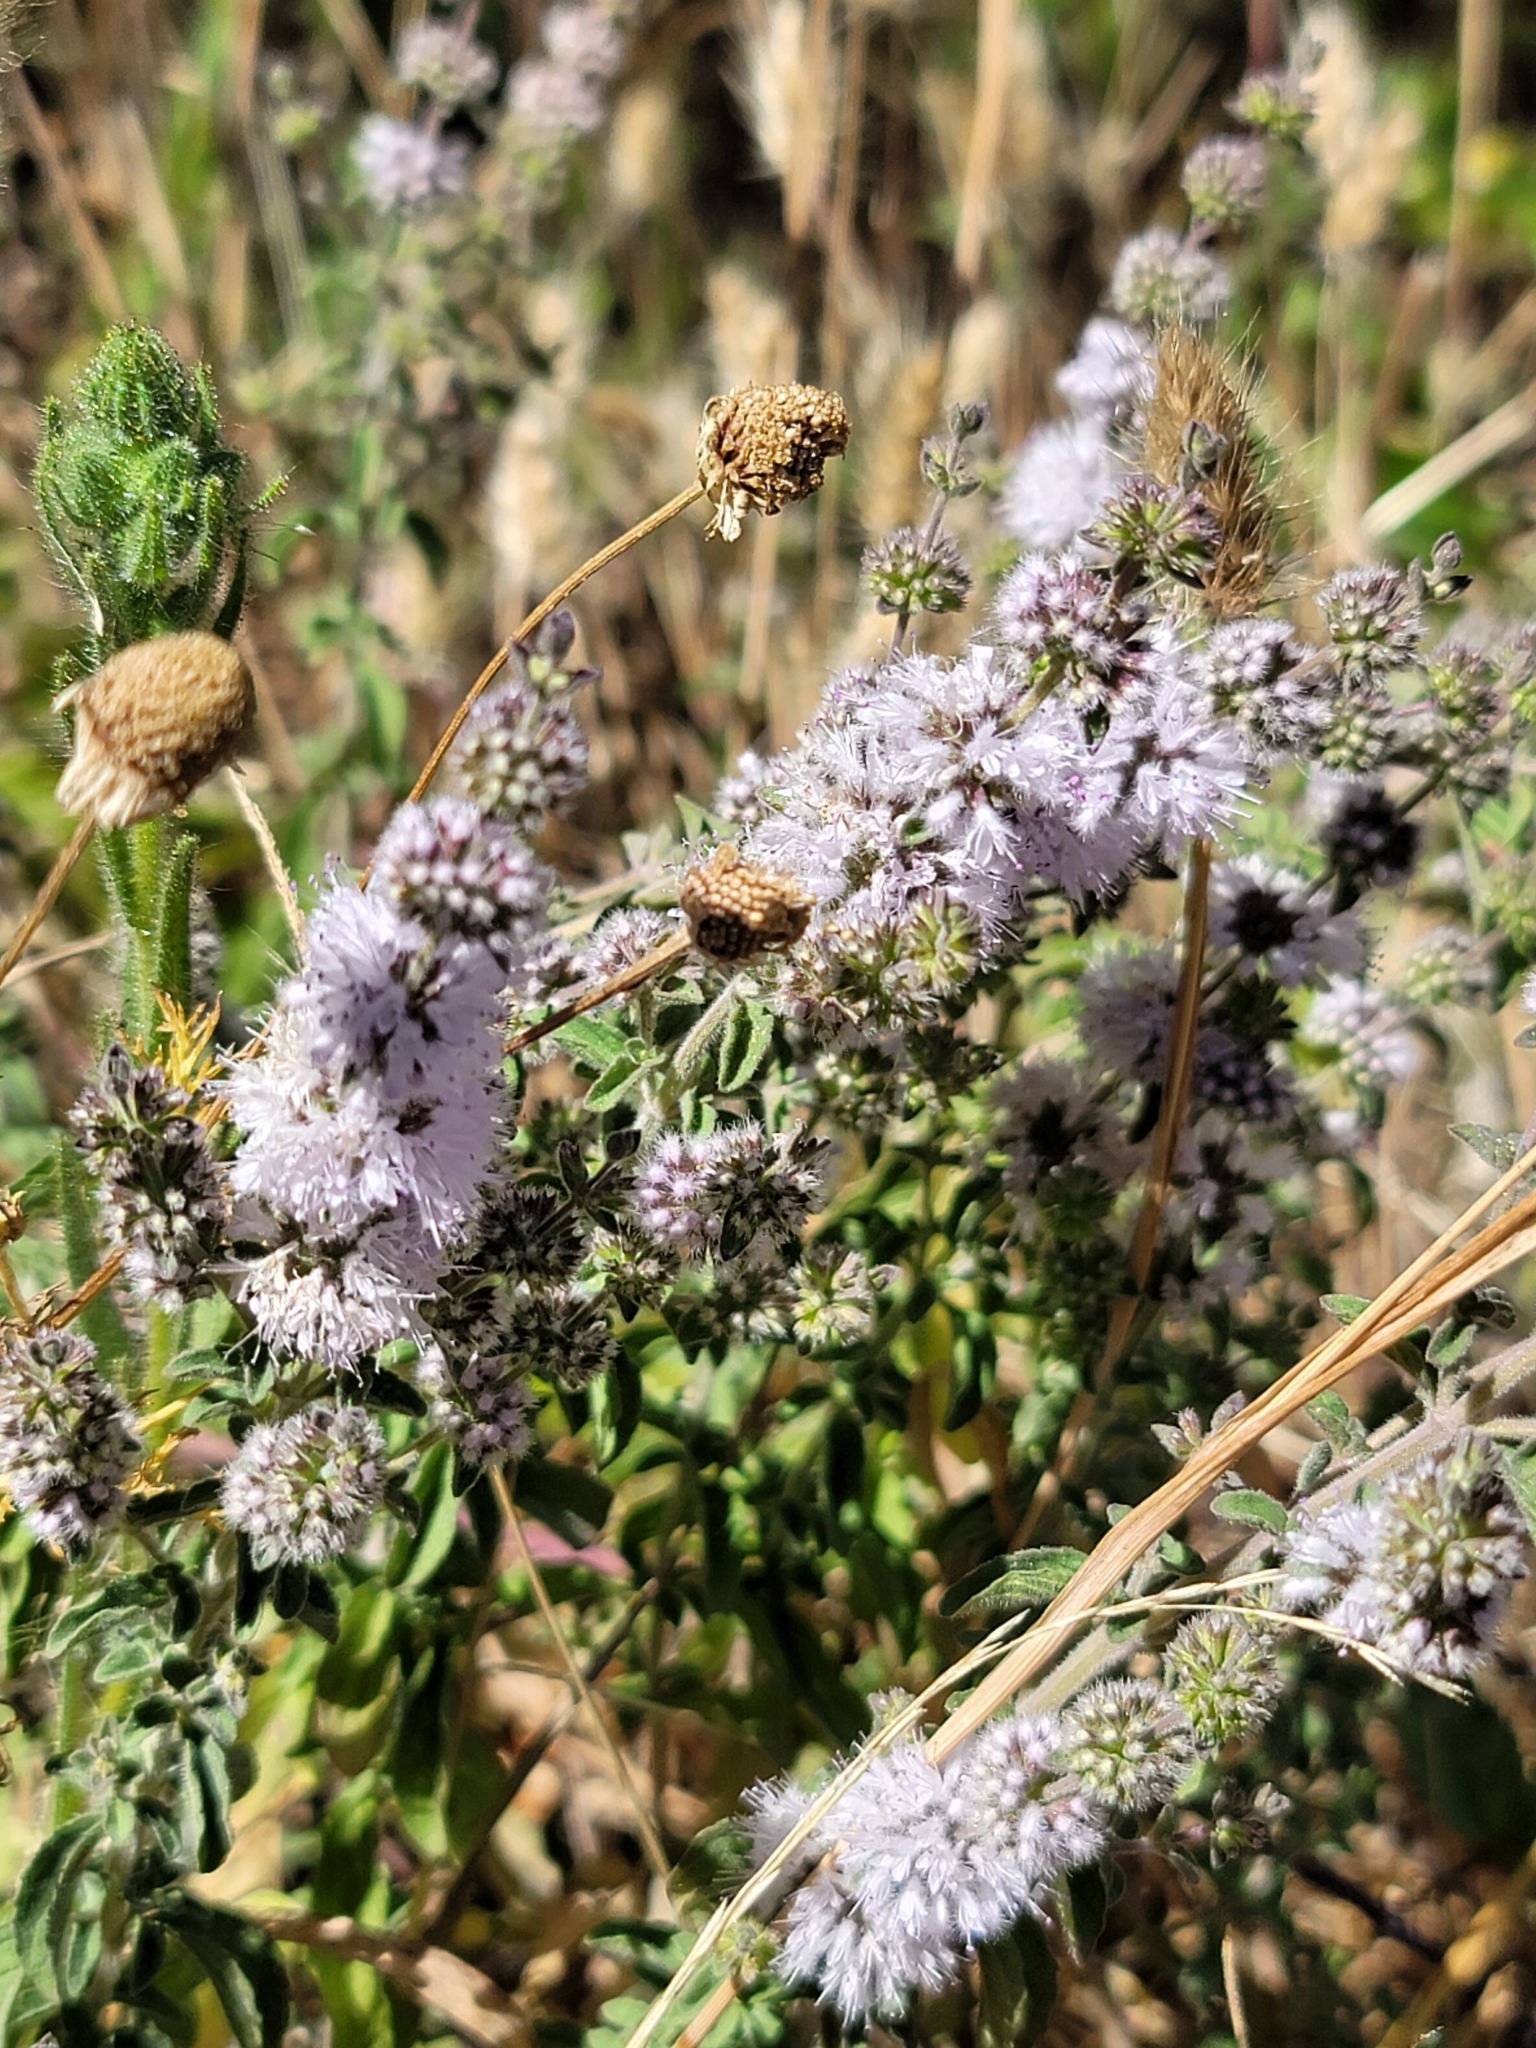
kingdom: Plantae
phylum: Tracheophyta
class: Magnoliopsida
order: Lamiales
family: Lamiaceae
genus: Mentha
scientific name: Mentha pulegium
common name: Pennyroyal
